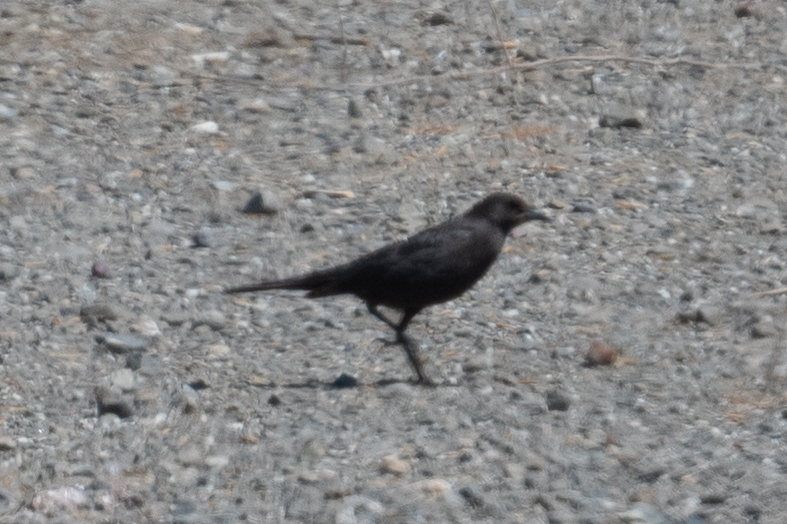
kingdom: Animalia
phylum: Chordata
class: Aves
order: Passeriformes
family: Icteridae
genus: Euphagus
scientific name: Euphagus cyanocephalus
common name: Brewer's blackbird
